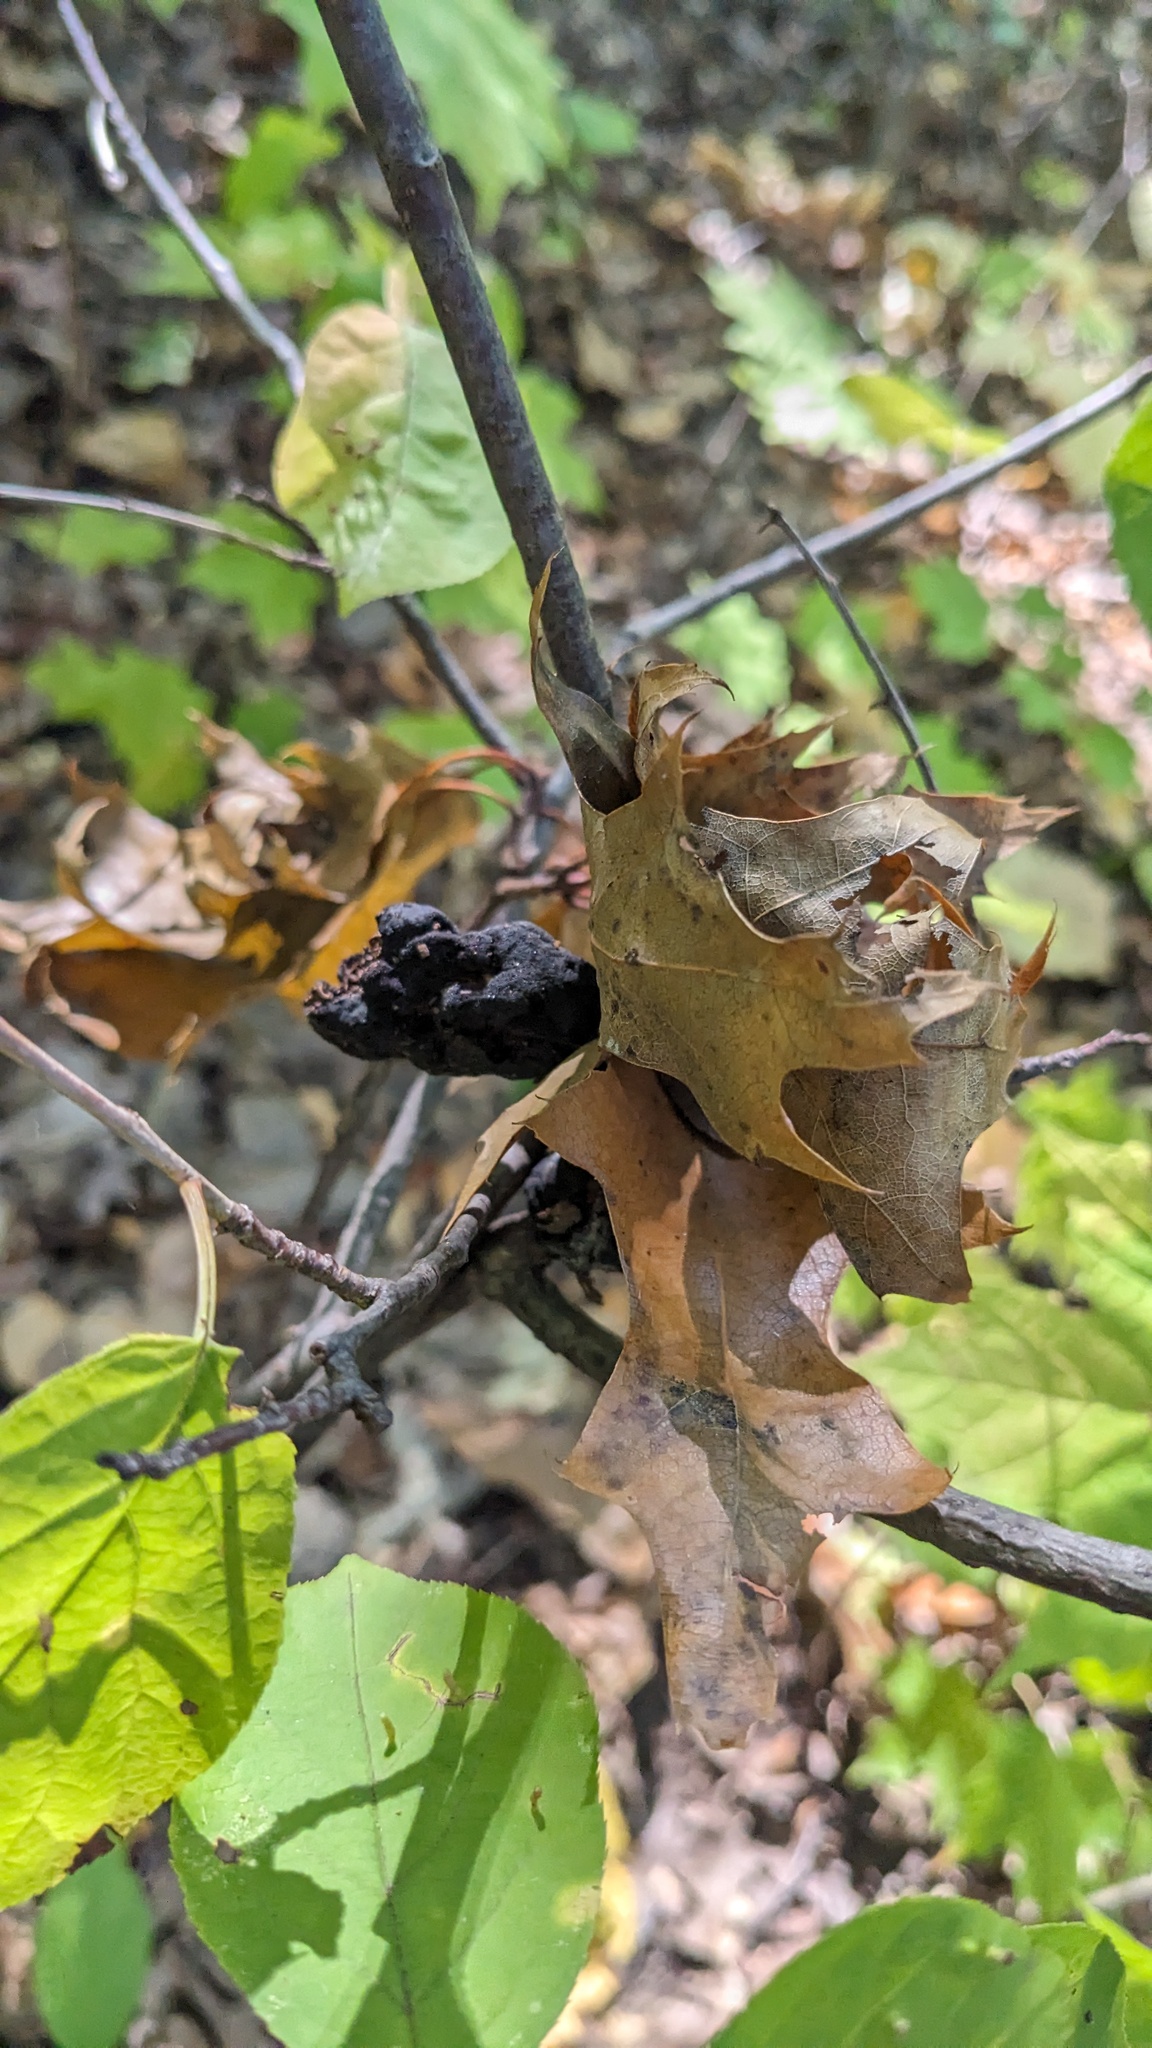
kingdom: Fungi
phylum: Ascomycota
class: Dothideomycetes
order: Venturiales
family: Venturiaceae
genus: Apiosporina
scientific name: Apiosporina morbosa
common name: Black knot
